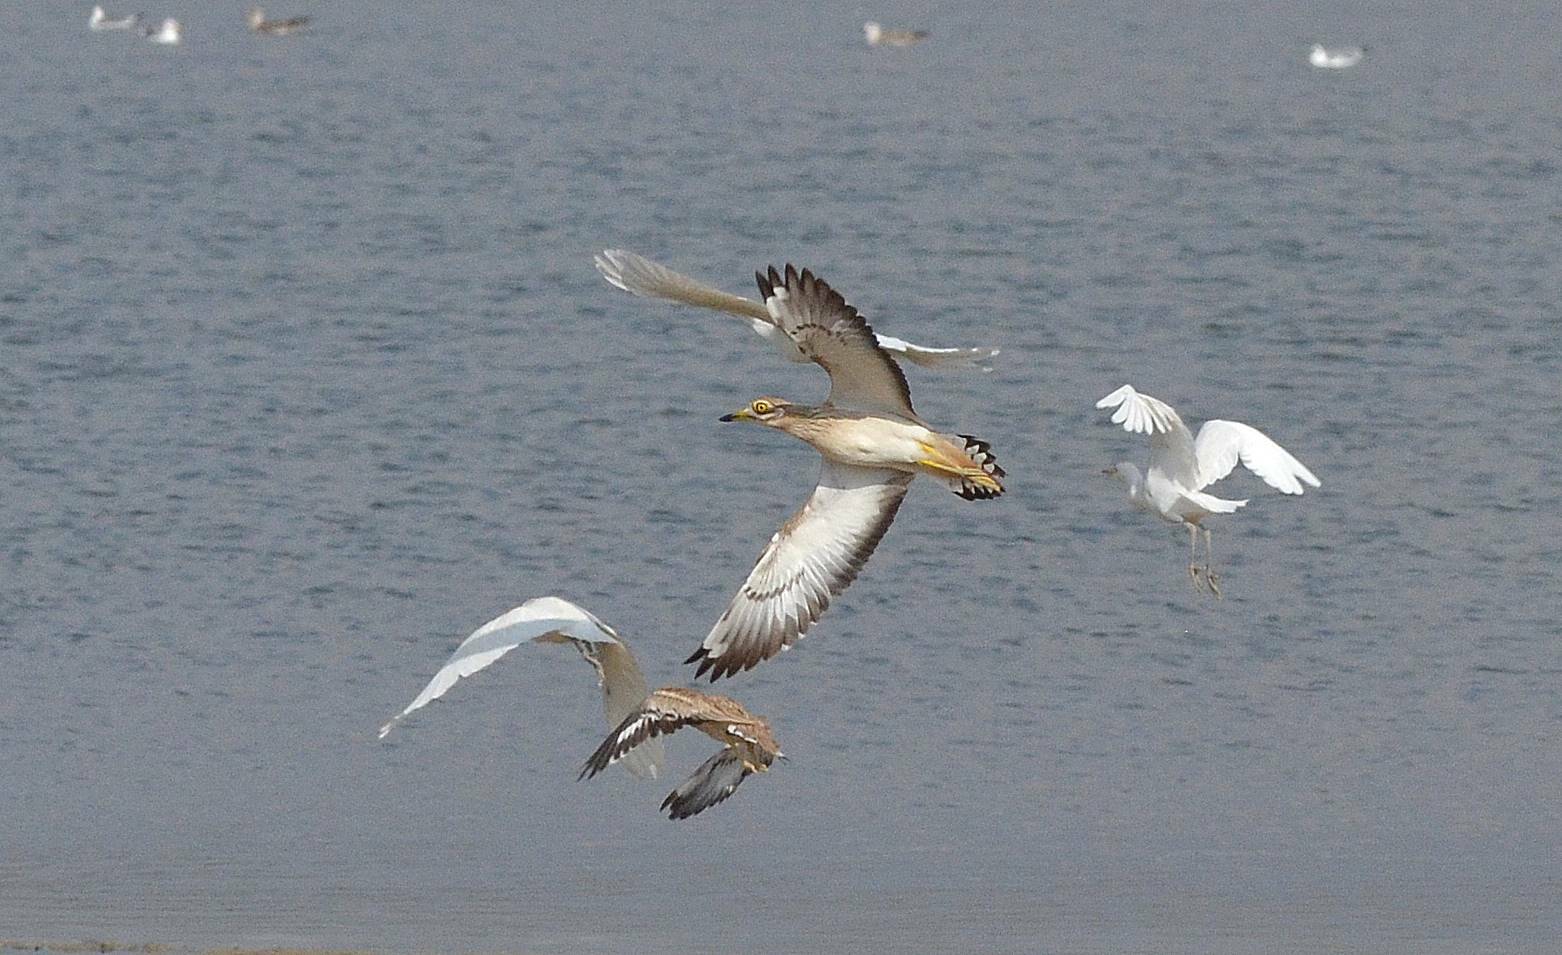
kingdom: Animalia
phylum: Chordata
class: Aves
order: Charadriiformes
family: Burhinidae
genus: Burhinus
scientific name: Burhinus oedicnemus
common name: Eurasian stone-curlew
